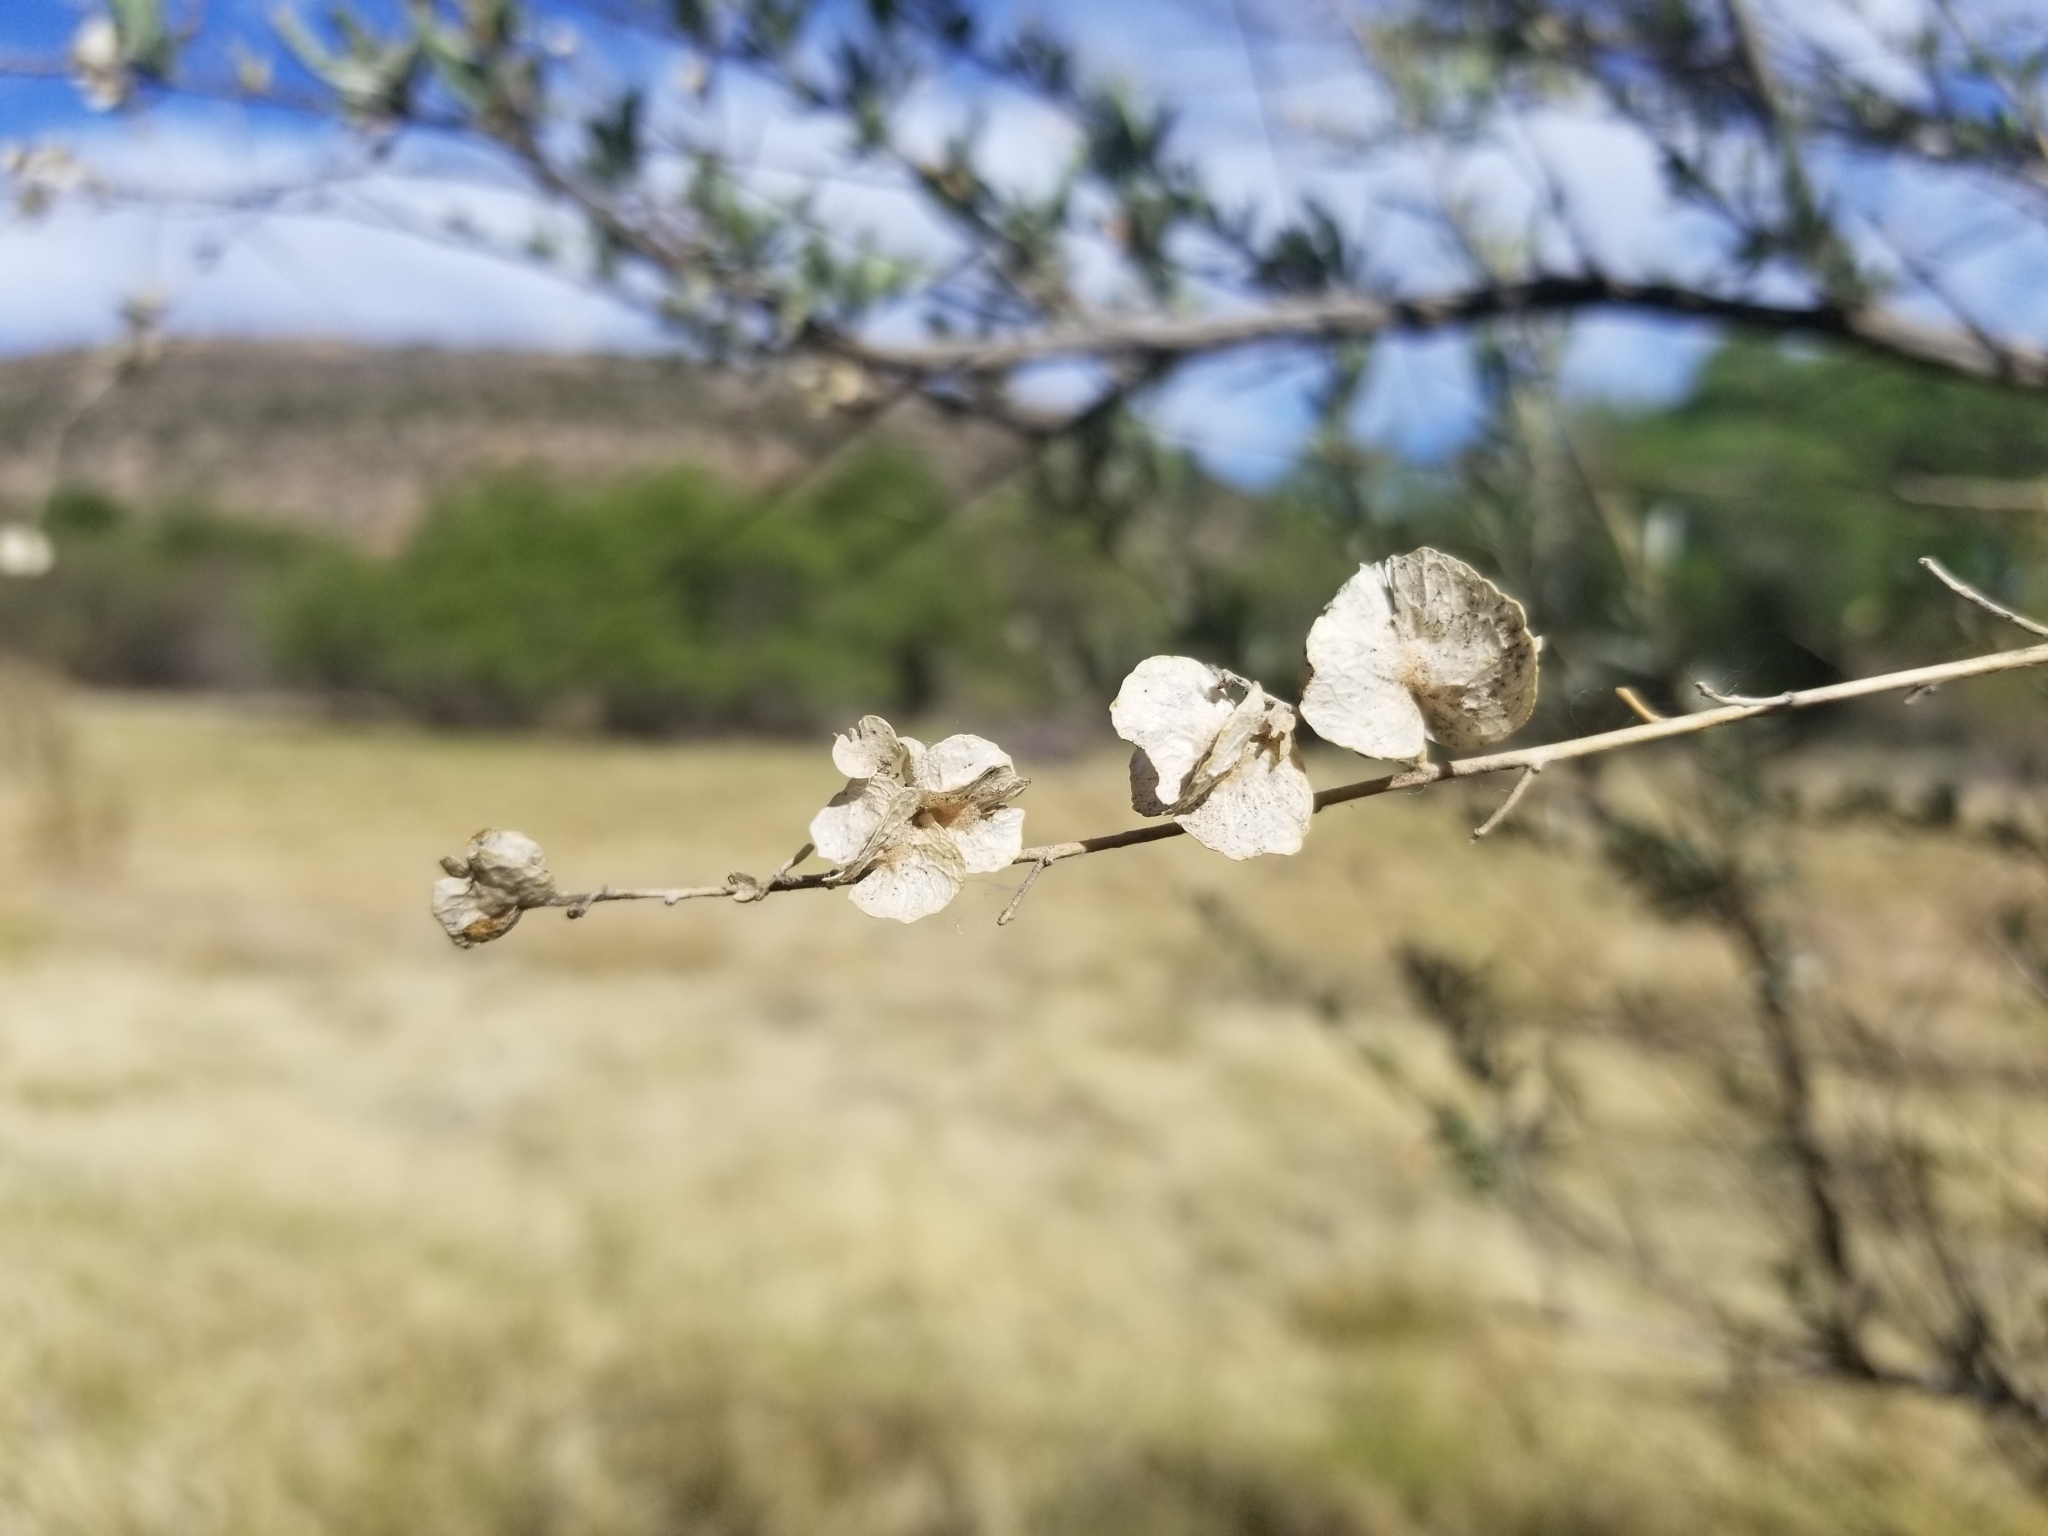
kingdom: Plantae
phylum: Tracheophyta
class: Magnoliopsida
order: Caryophyllales
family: Amaranthaceae
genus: Atriplex
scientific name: Atriplex canescens
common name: Four-wing saltbush
